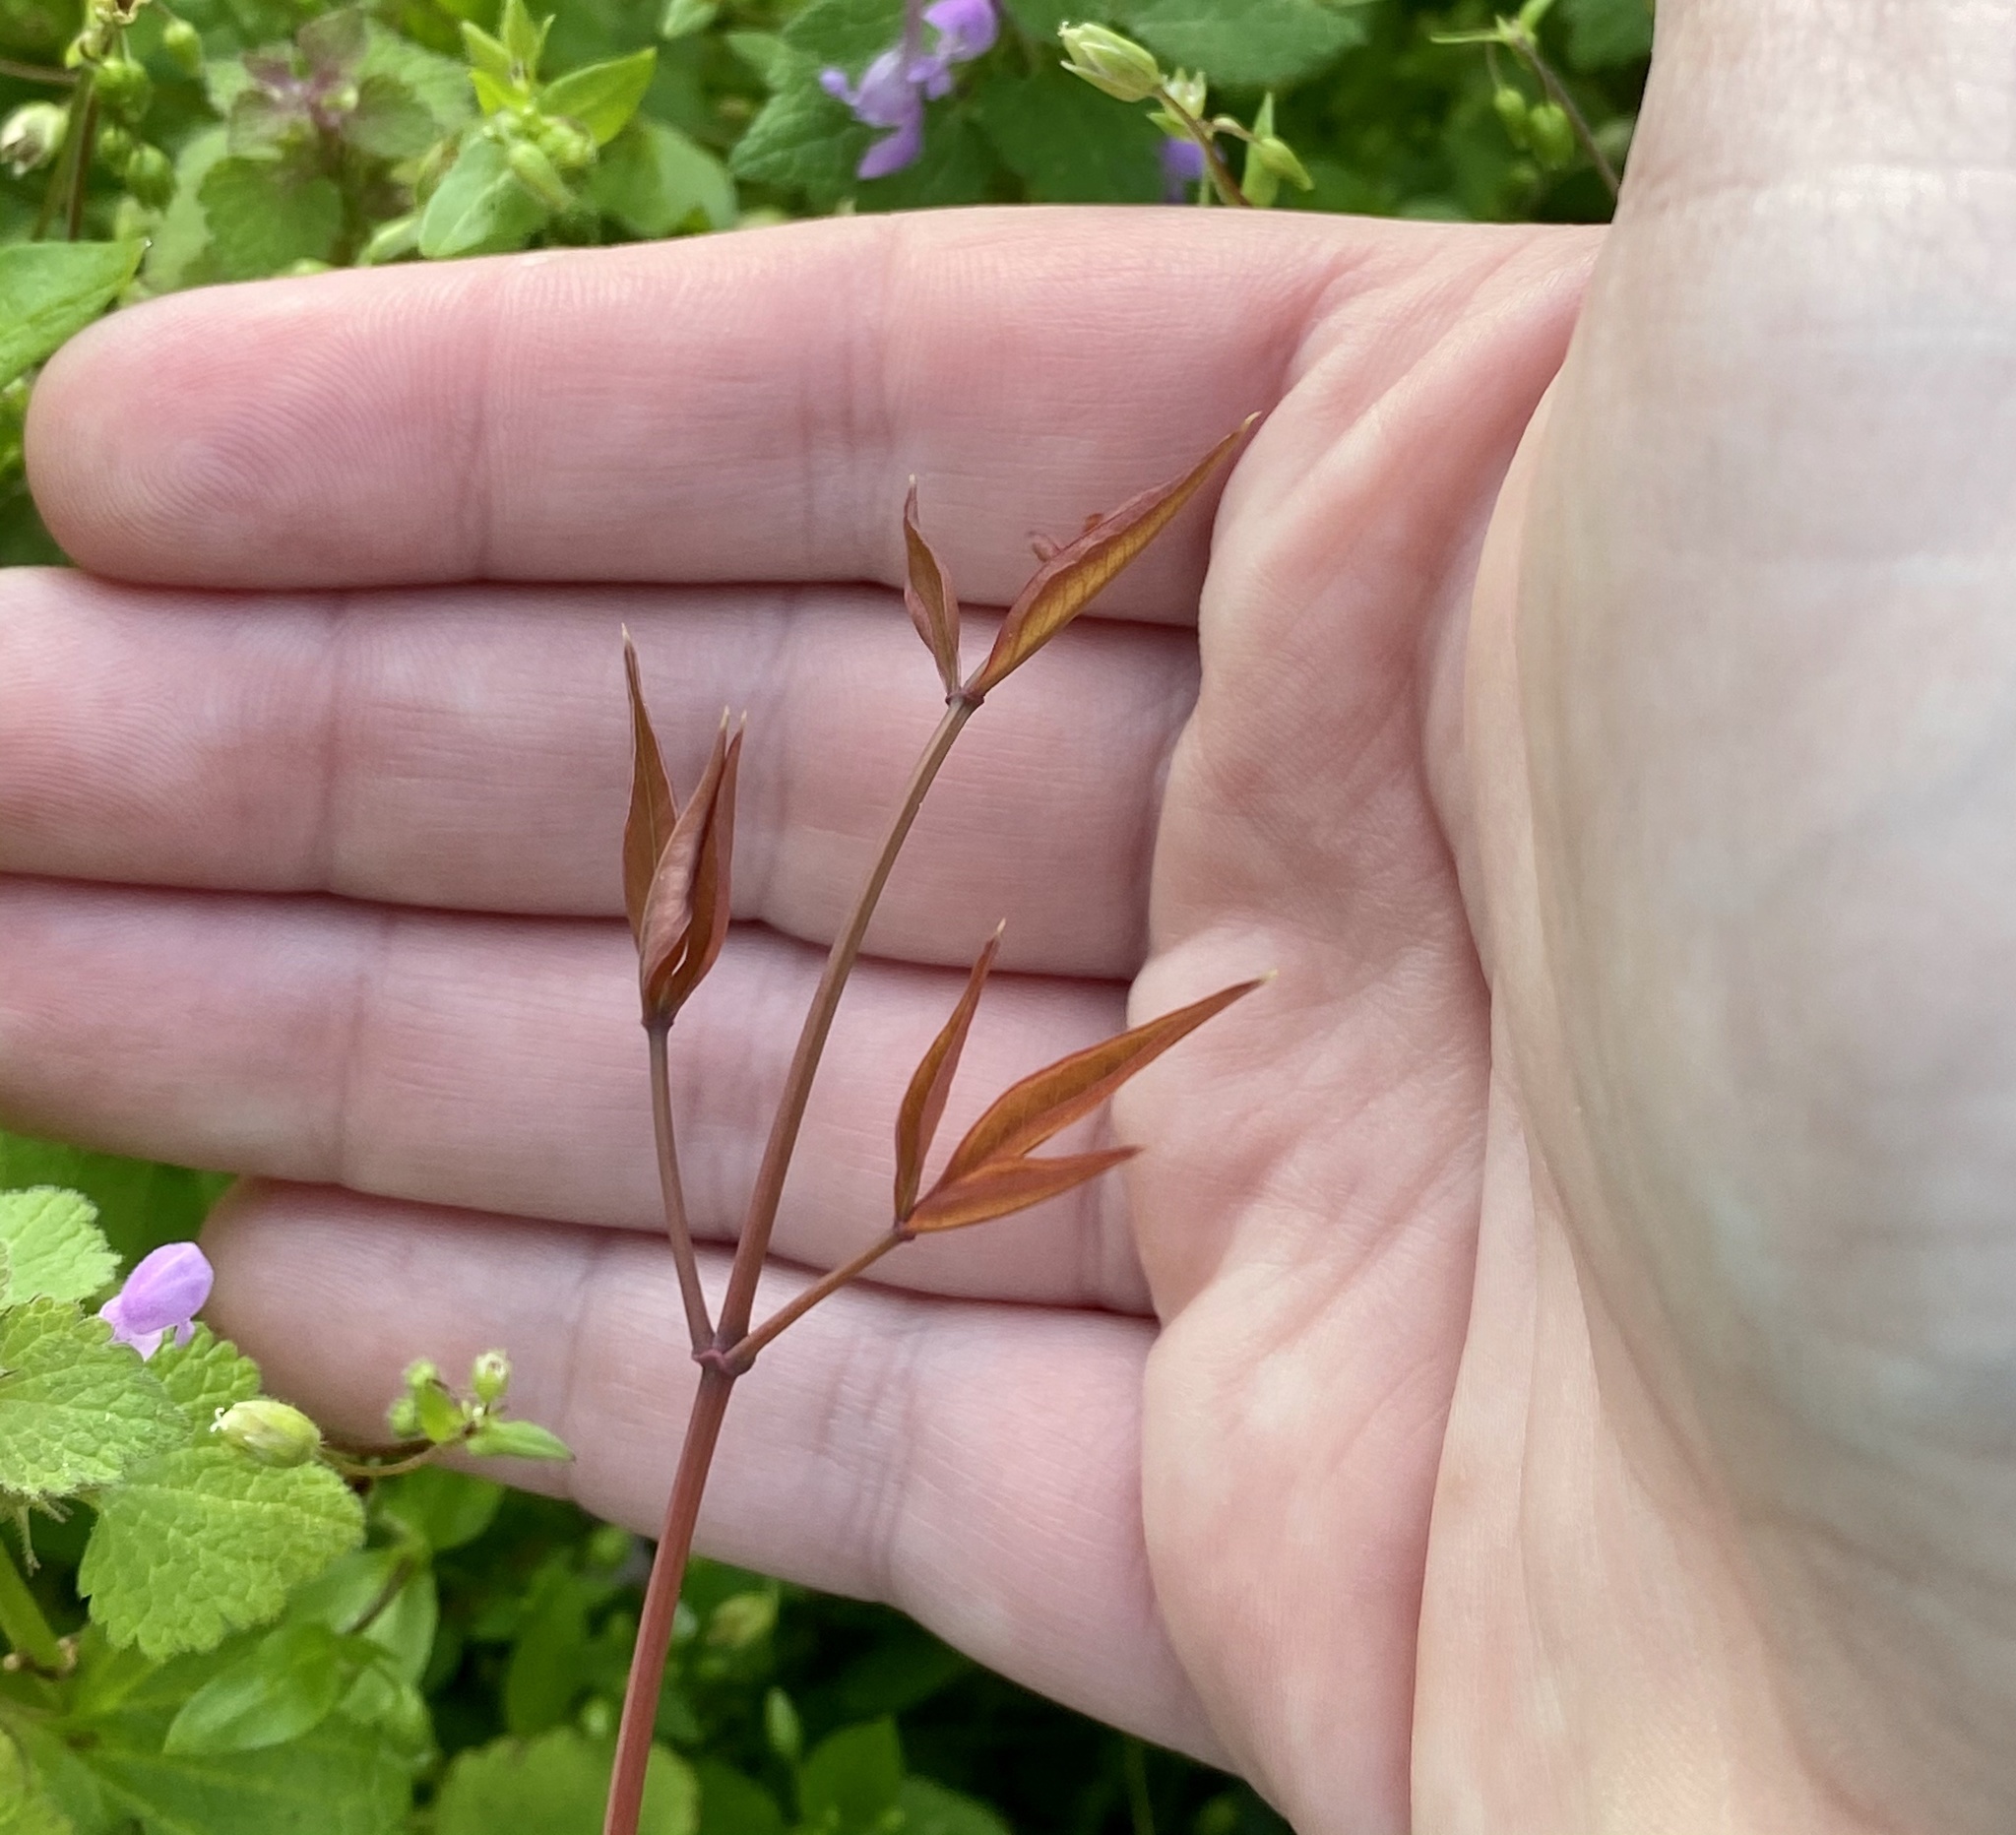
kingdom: Plantae
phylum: Tracheophyta
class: Magnoliopsida
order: Ranunculales
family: Berberidaceae
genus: Nandina
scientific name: Nandina domestica
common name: Sacred bamboo
